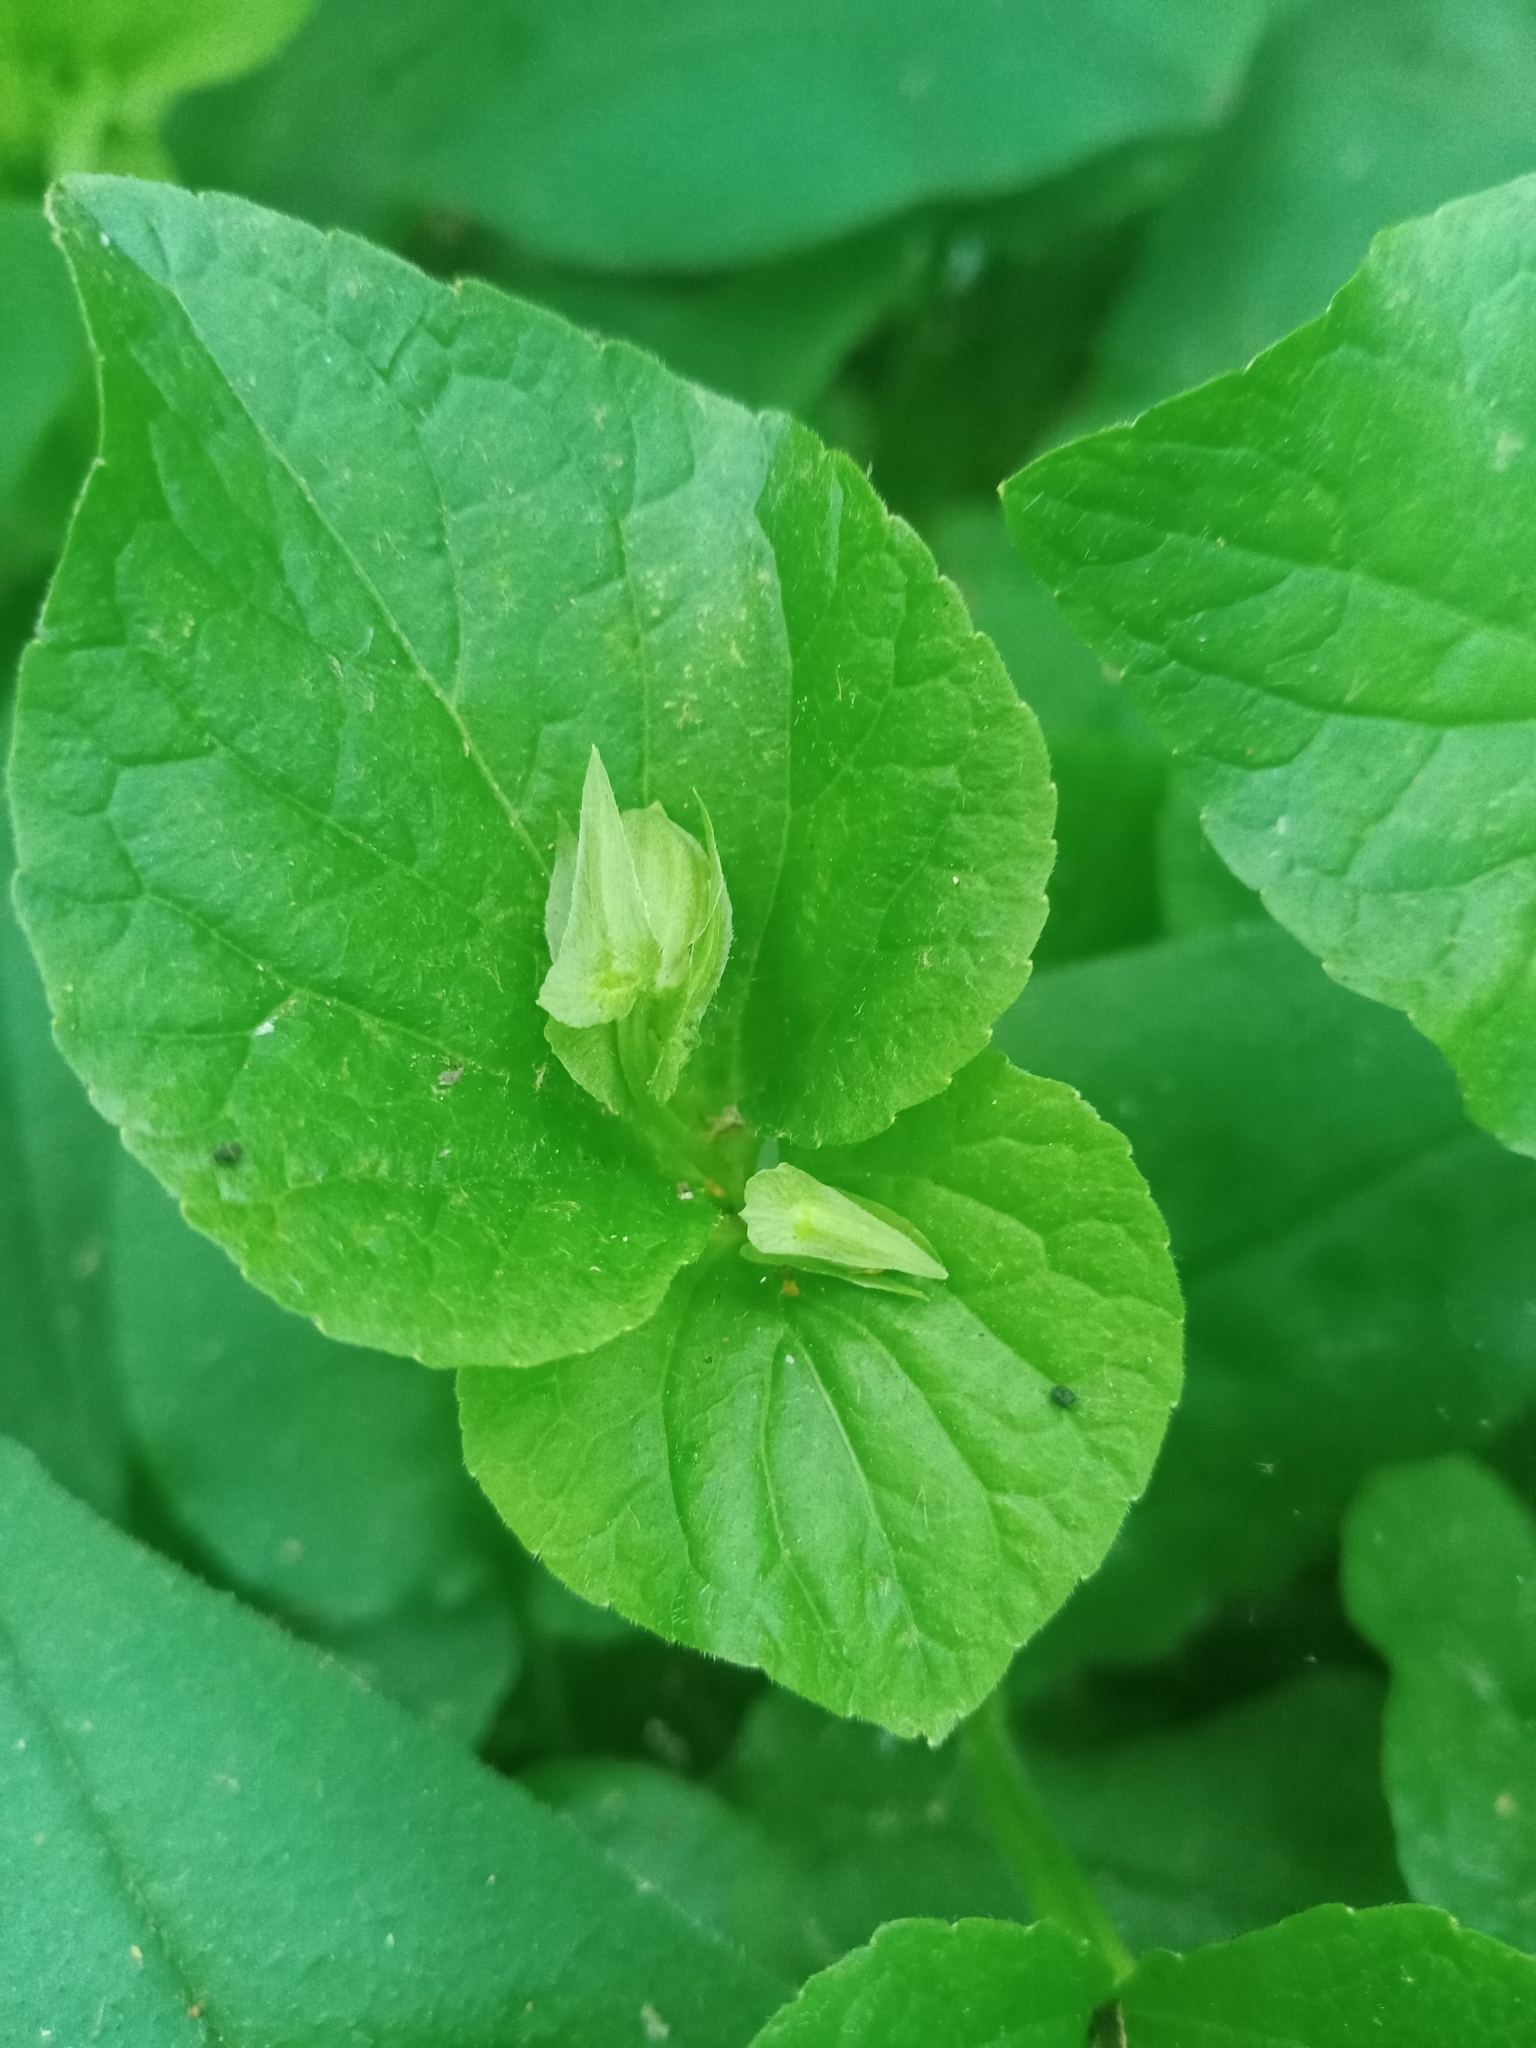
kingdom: Plantae
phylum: Tracheophyta
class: Magnoliopsida
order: Malpighiales
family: Violaceae
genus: Viola
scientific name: Viola mirabilis
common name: Wonder violet
